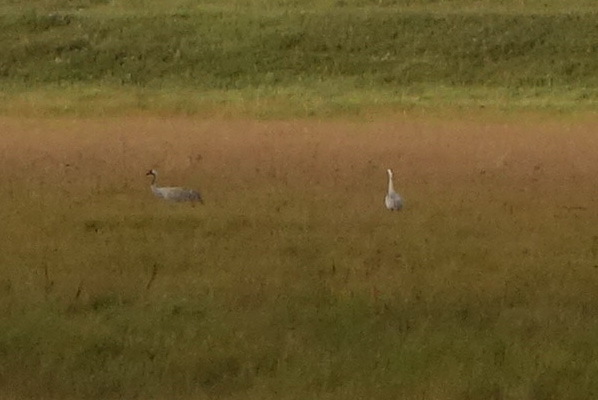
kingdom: Animalia
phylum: Chordata
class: Aves
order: Gruiformes
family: Gruidae
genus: Grus
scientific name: Grus grus
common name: Common crane
